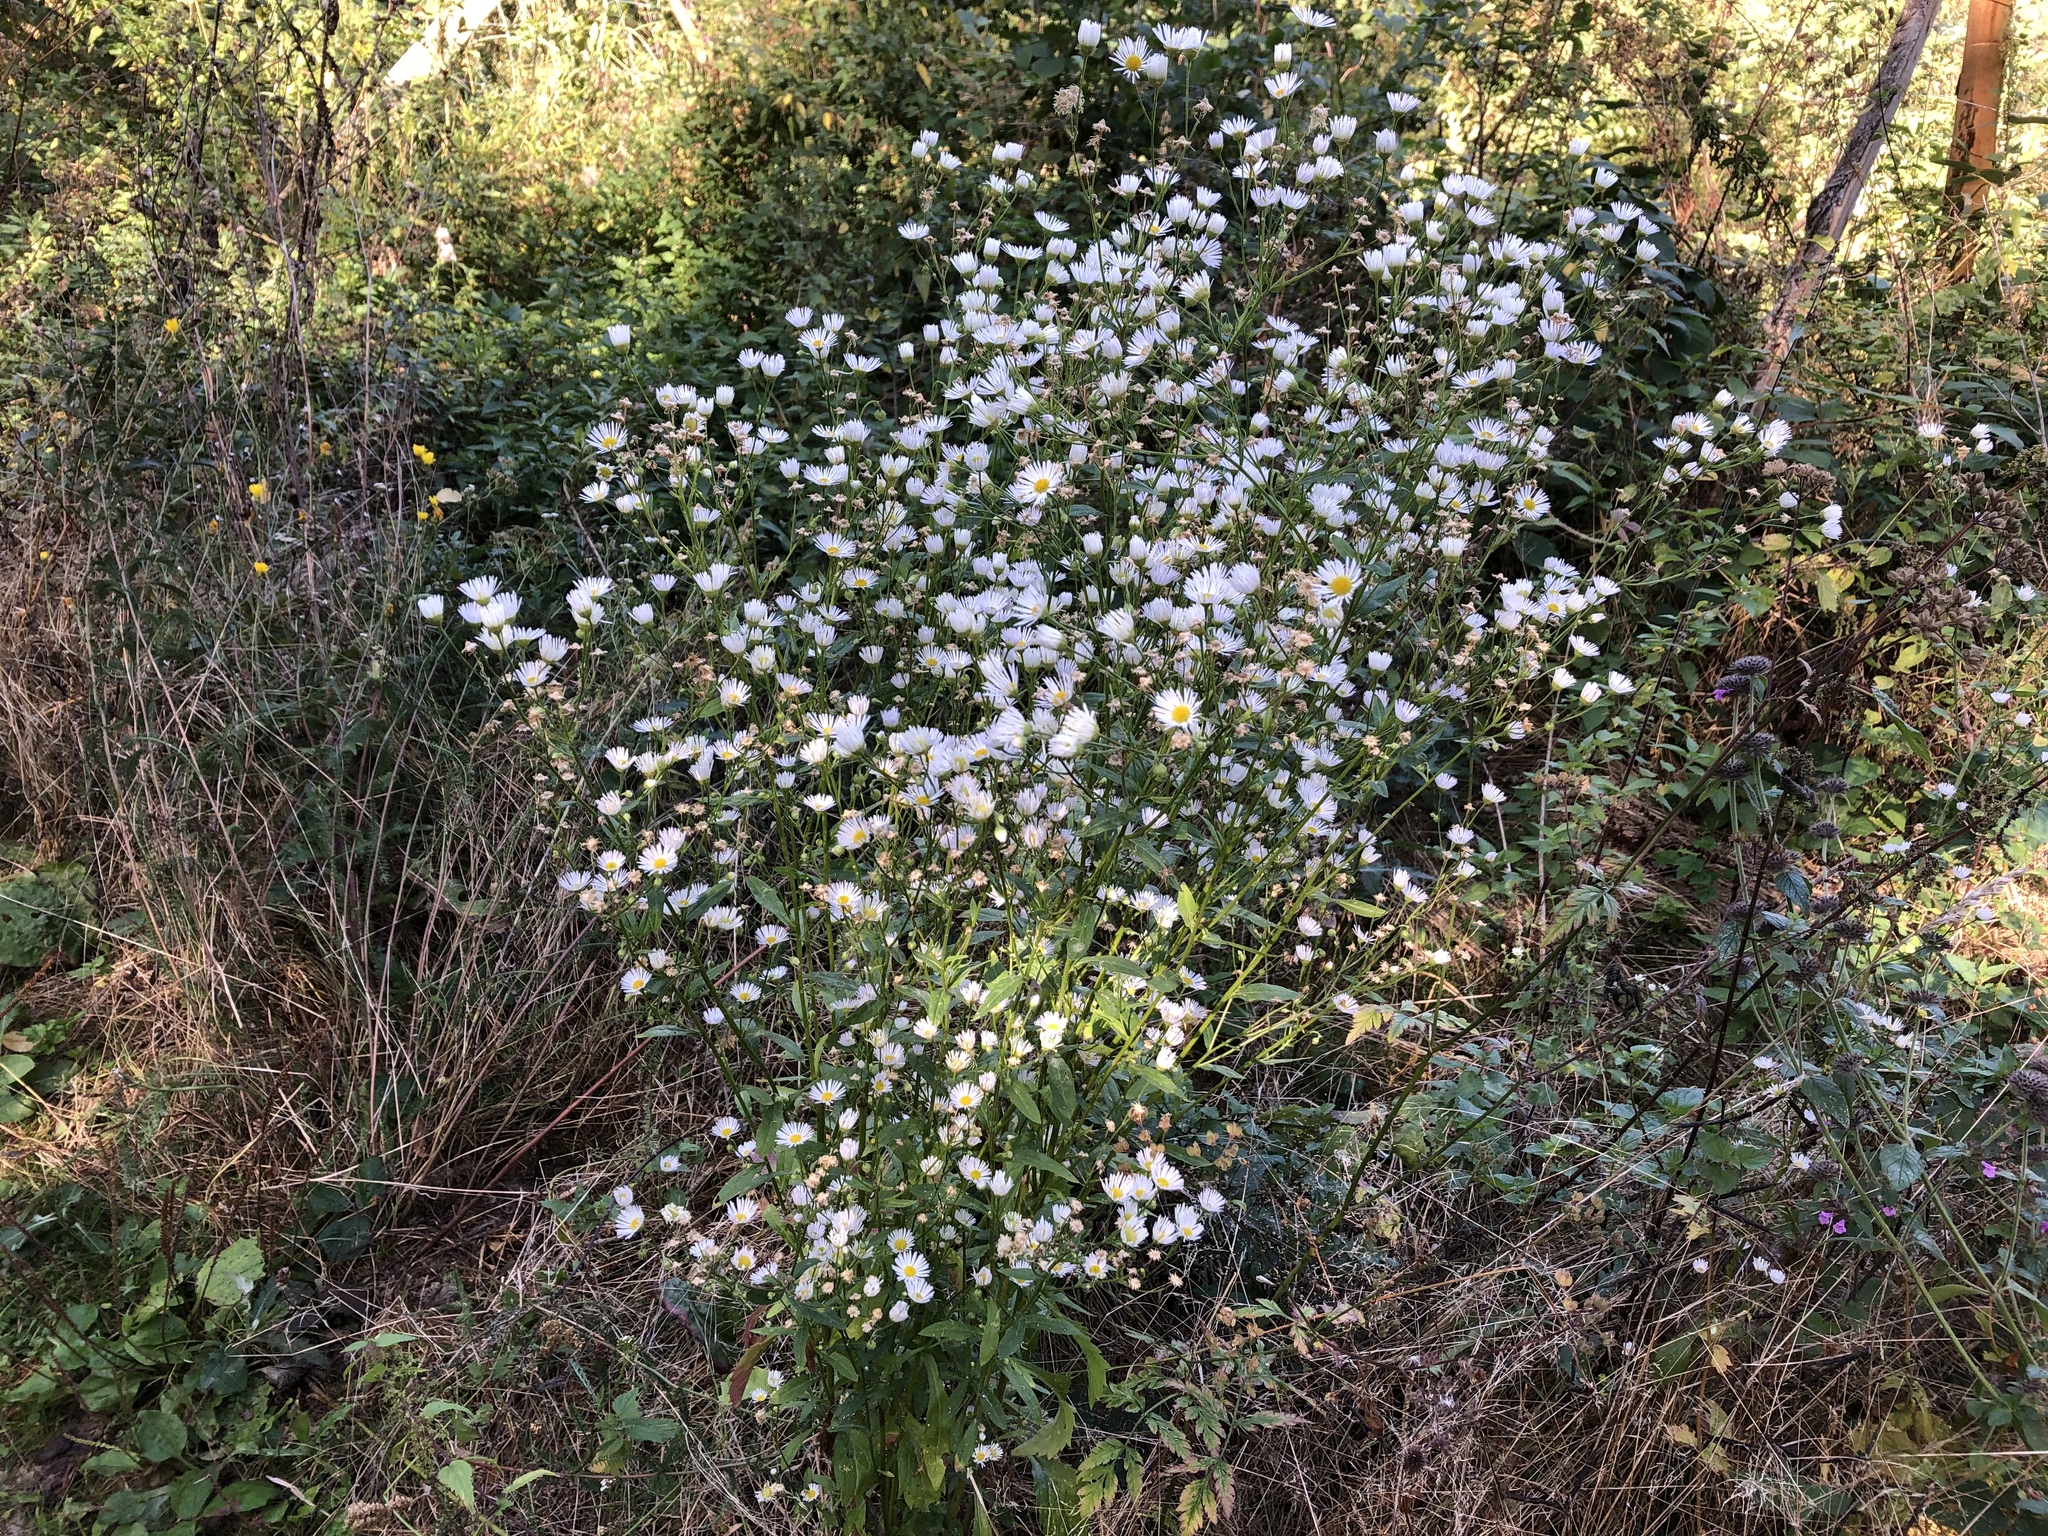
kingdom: Plantae
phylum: Tracheophyta
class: Magnoliopsida
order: Asterales
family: Asteraceae
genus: Erigeron
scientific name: Erigeron annuus
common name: Tall fleabane
